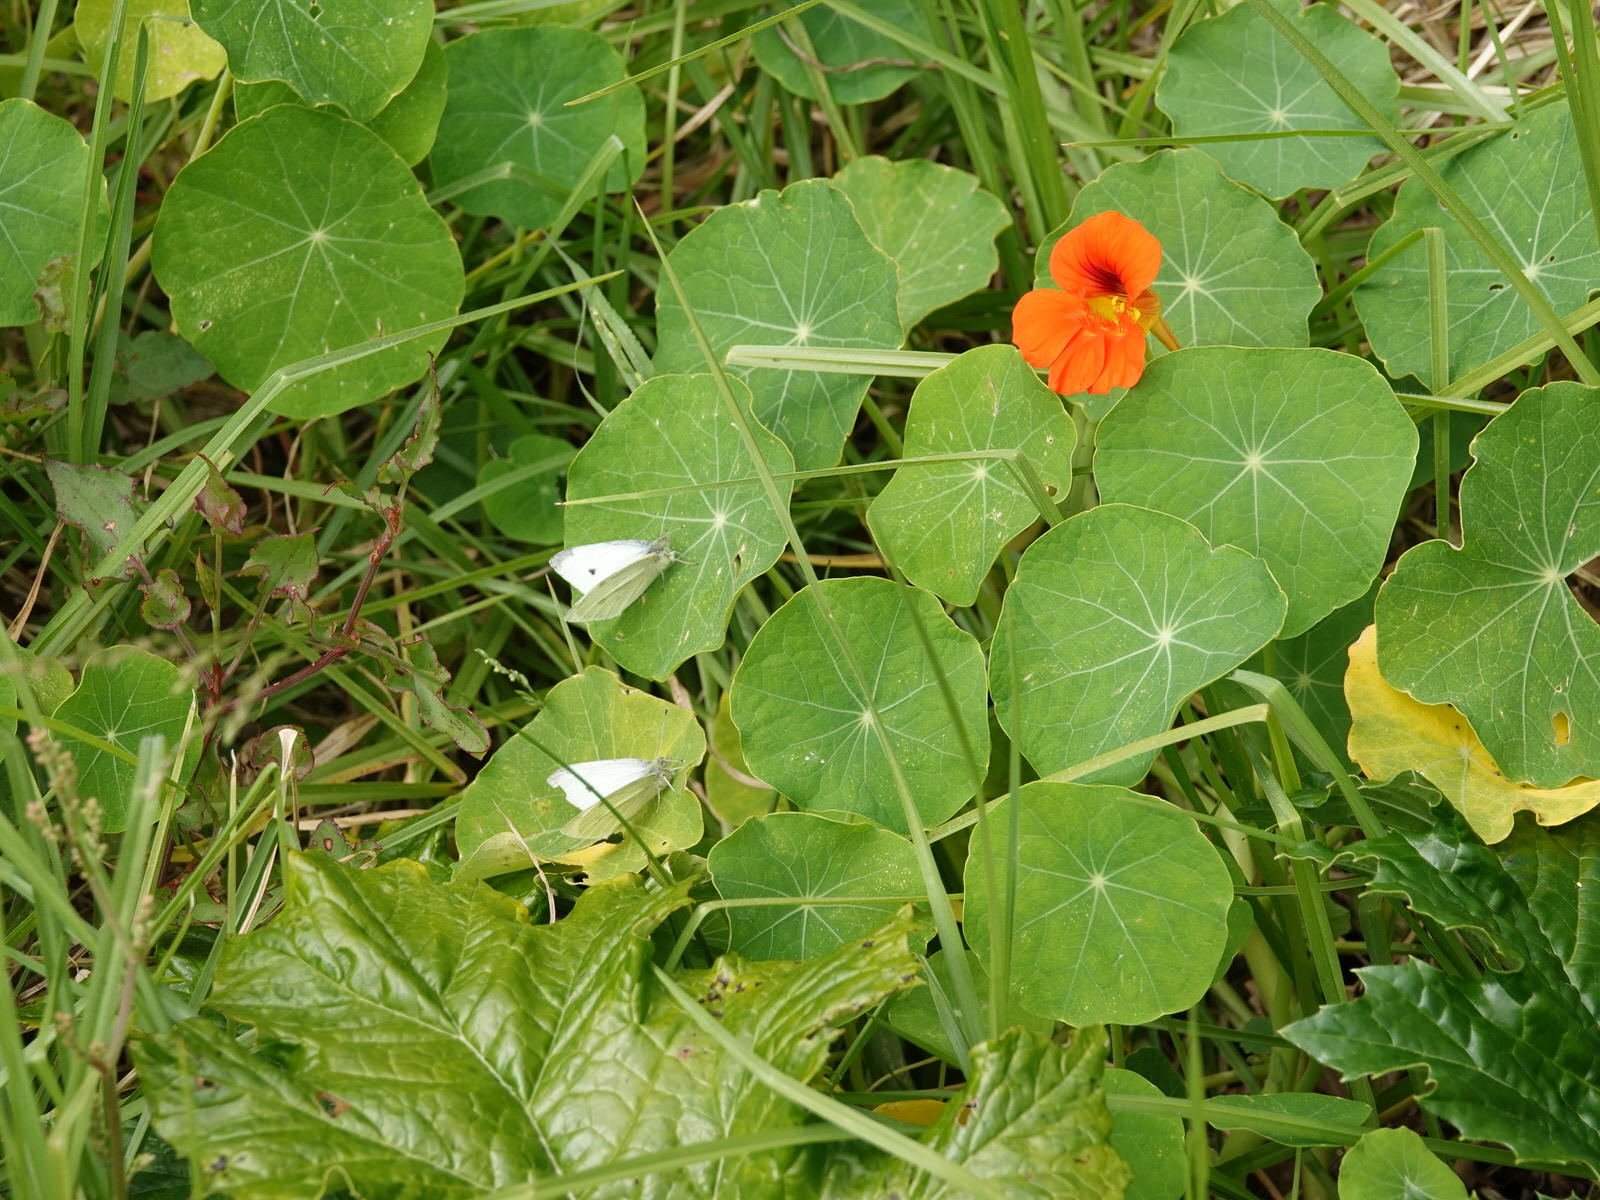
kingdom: Animalia
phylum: Arthropoda
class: Insecta
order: Lepidoptera
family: Pieridae
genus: Pieris
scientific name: Pieris rapae
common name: Small white
